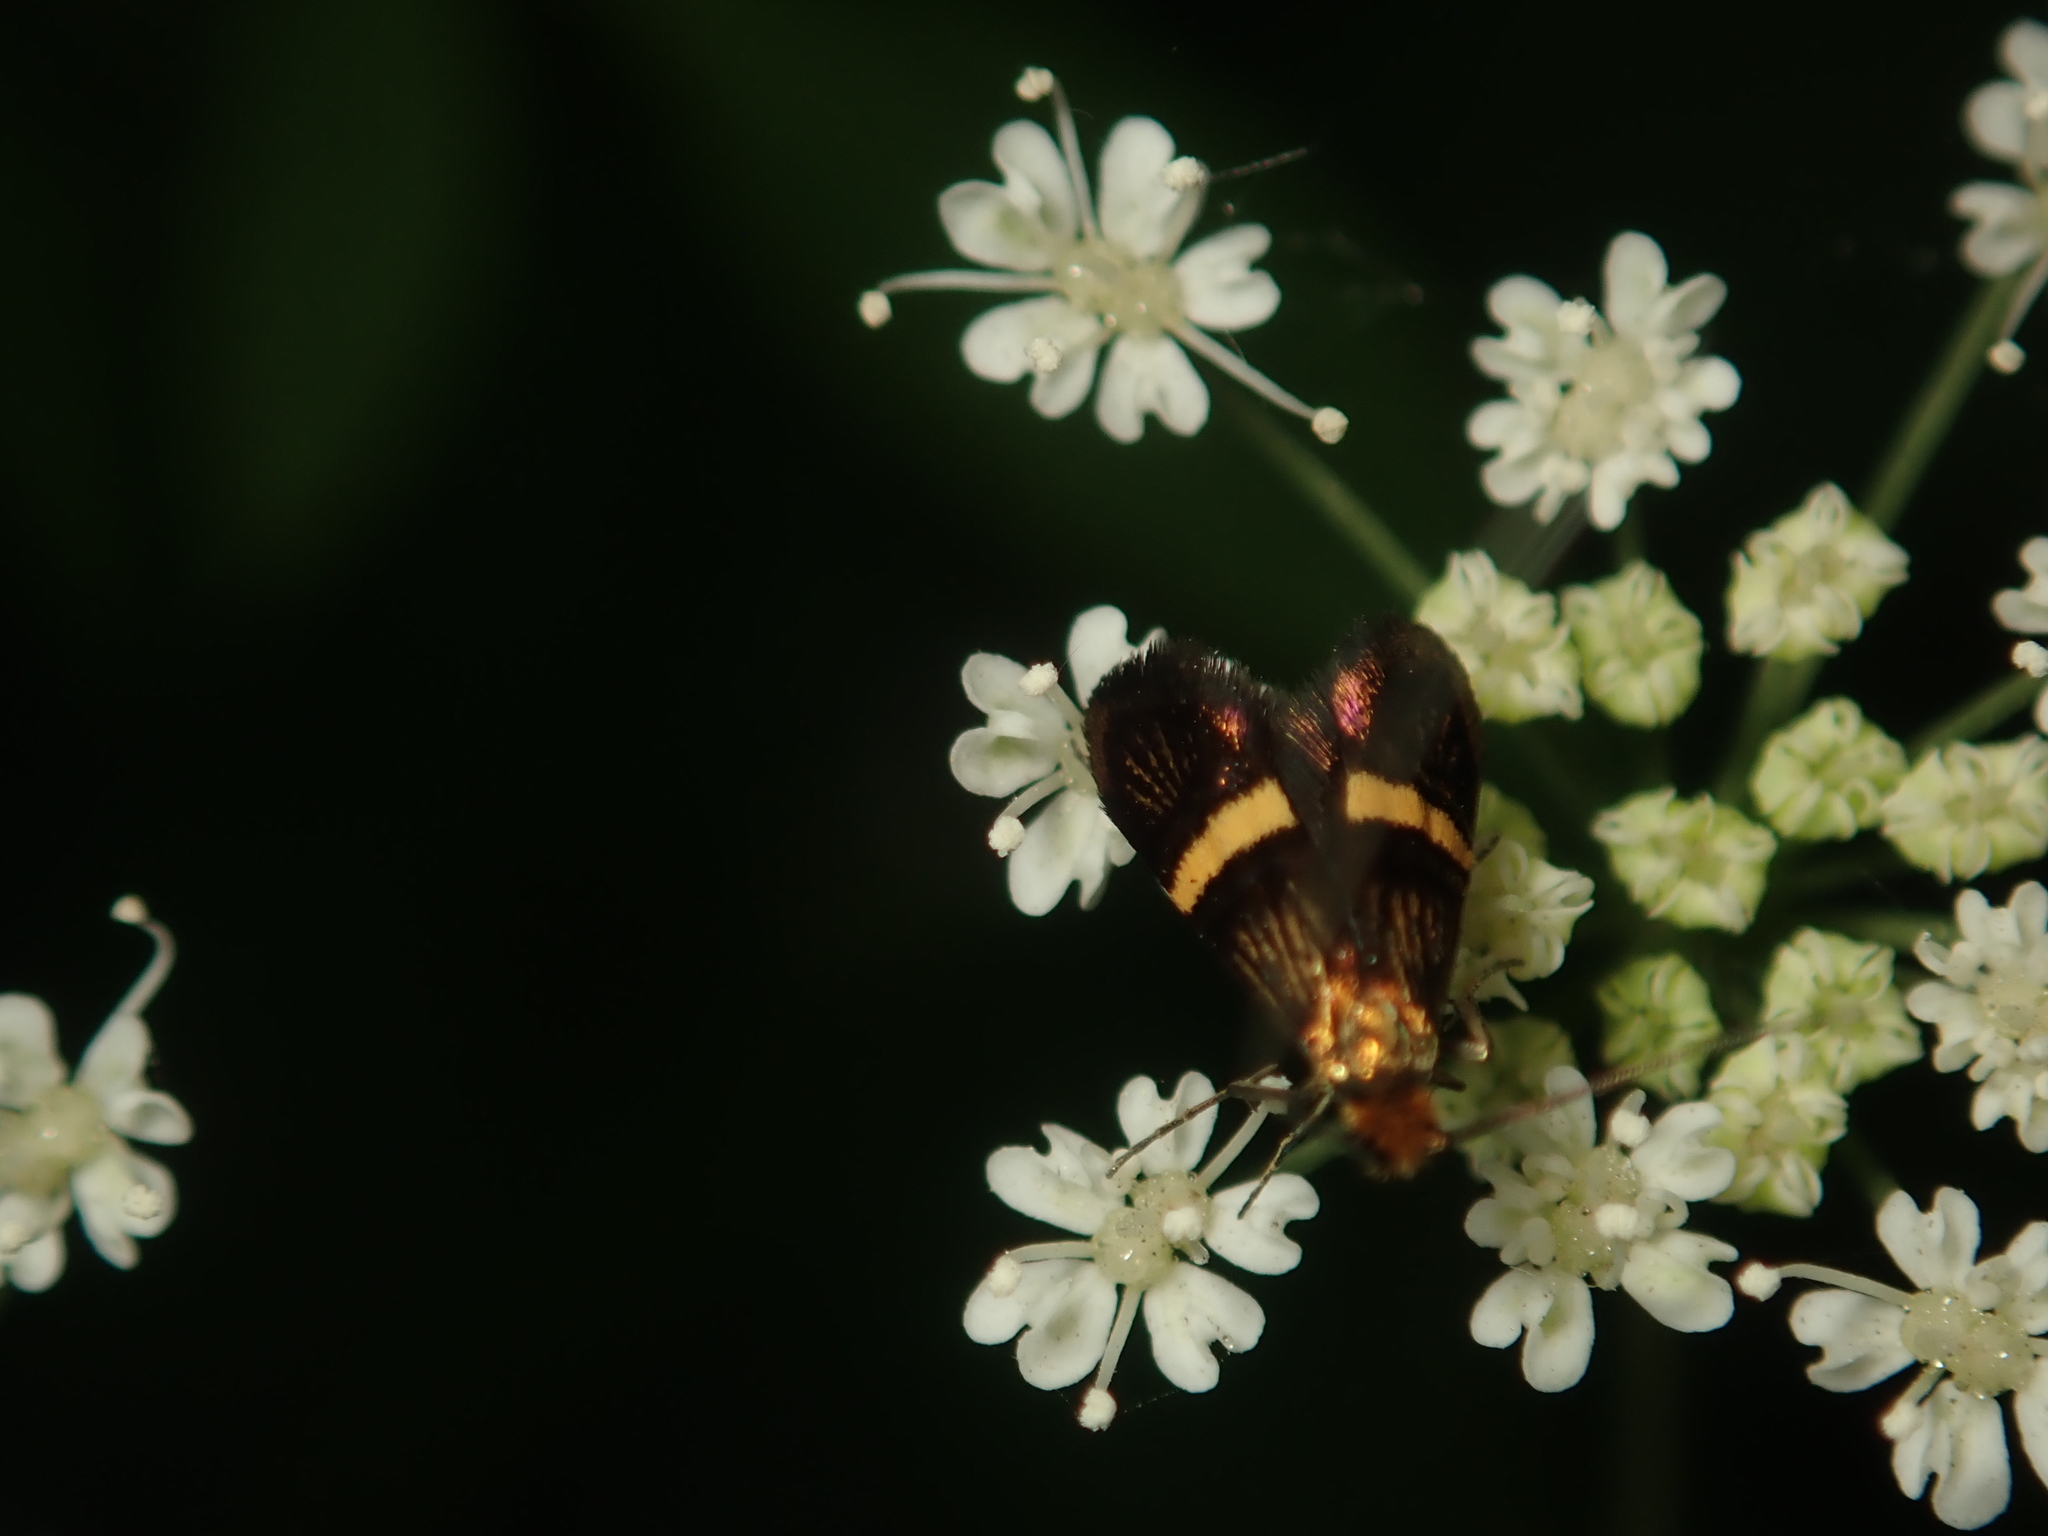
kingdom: Animalia
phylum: Arthropoda
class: Insecta
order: Lepidoptera
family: Adelidae
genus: Nemophora
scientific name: Nemophora degeerella
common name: Yellow-barred long-horn
